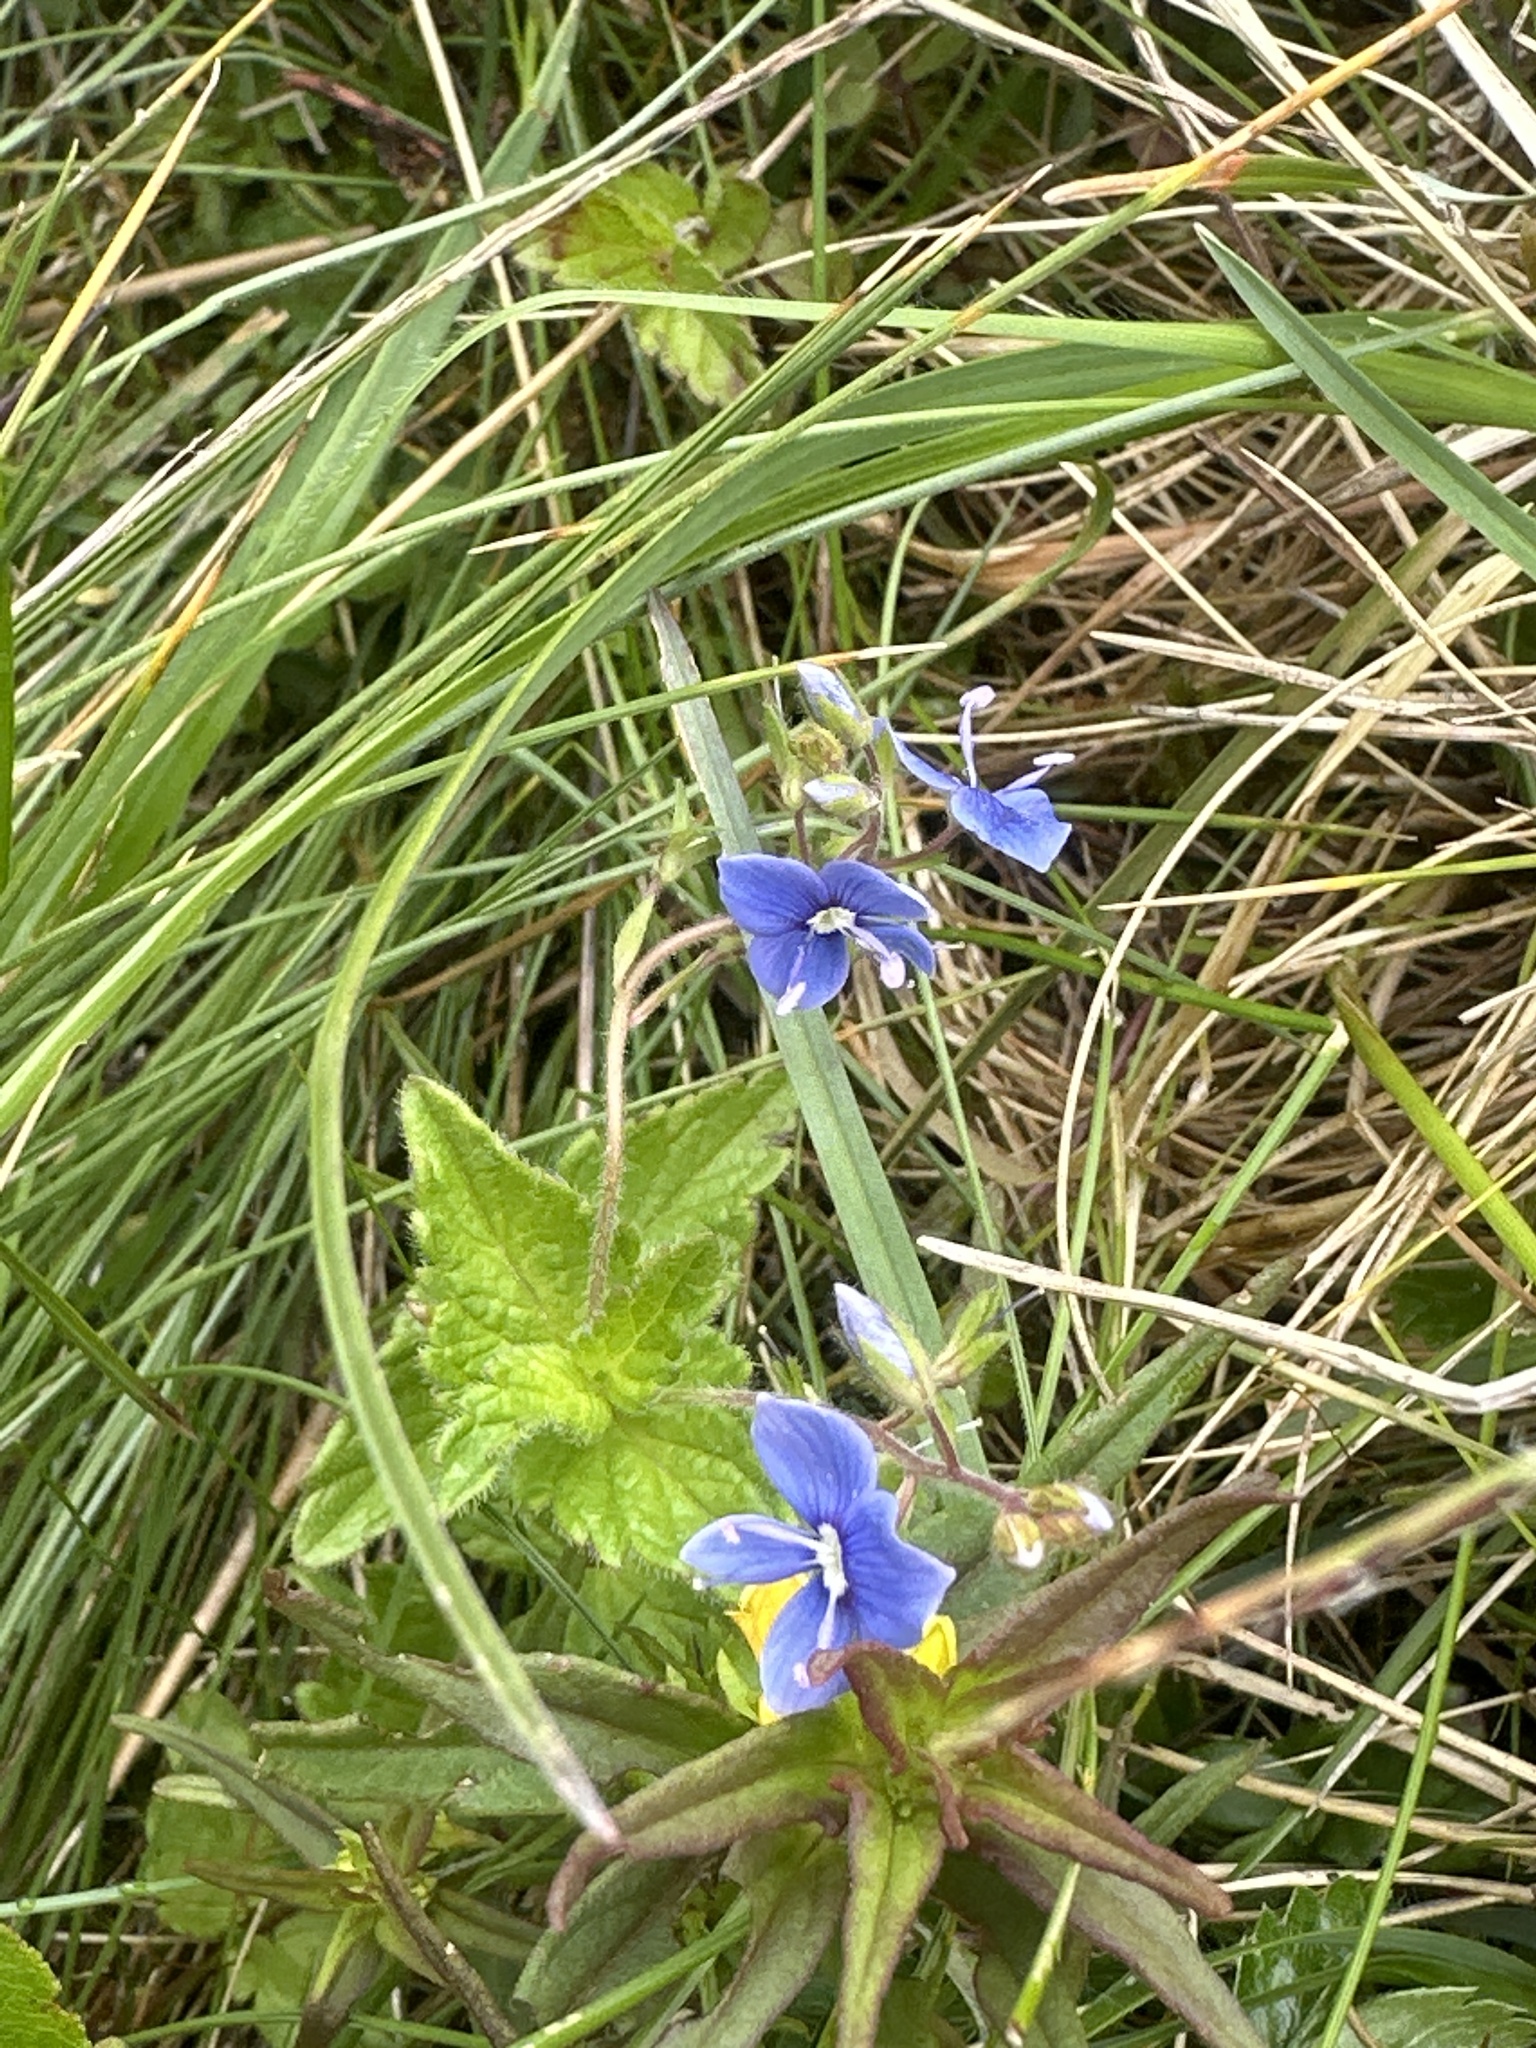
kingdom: Plantae
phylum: Tracheophyta
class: Magnoliopsida
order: Lamiales
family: Plantaginaceae
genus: Veronica
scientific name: Veronica chamaedrys
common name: Germander speedwell
